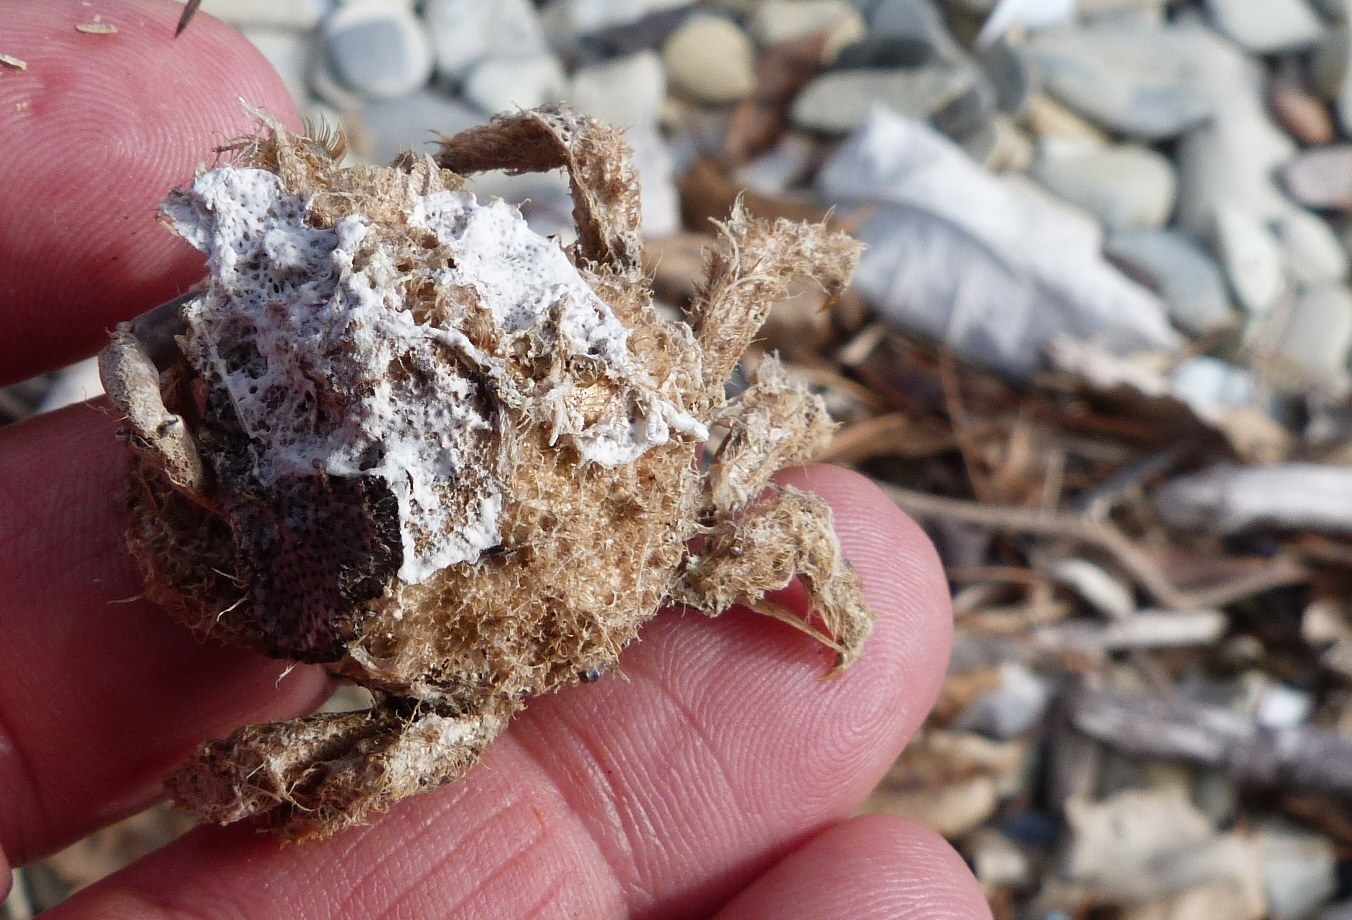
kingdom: Animalia
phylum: Arthropoda
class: Malacostraca
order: Decapoda
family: Majidae
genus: Notomithrax
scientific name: Notomithrax ursus
